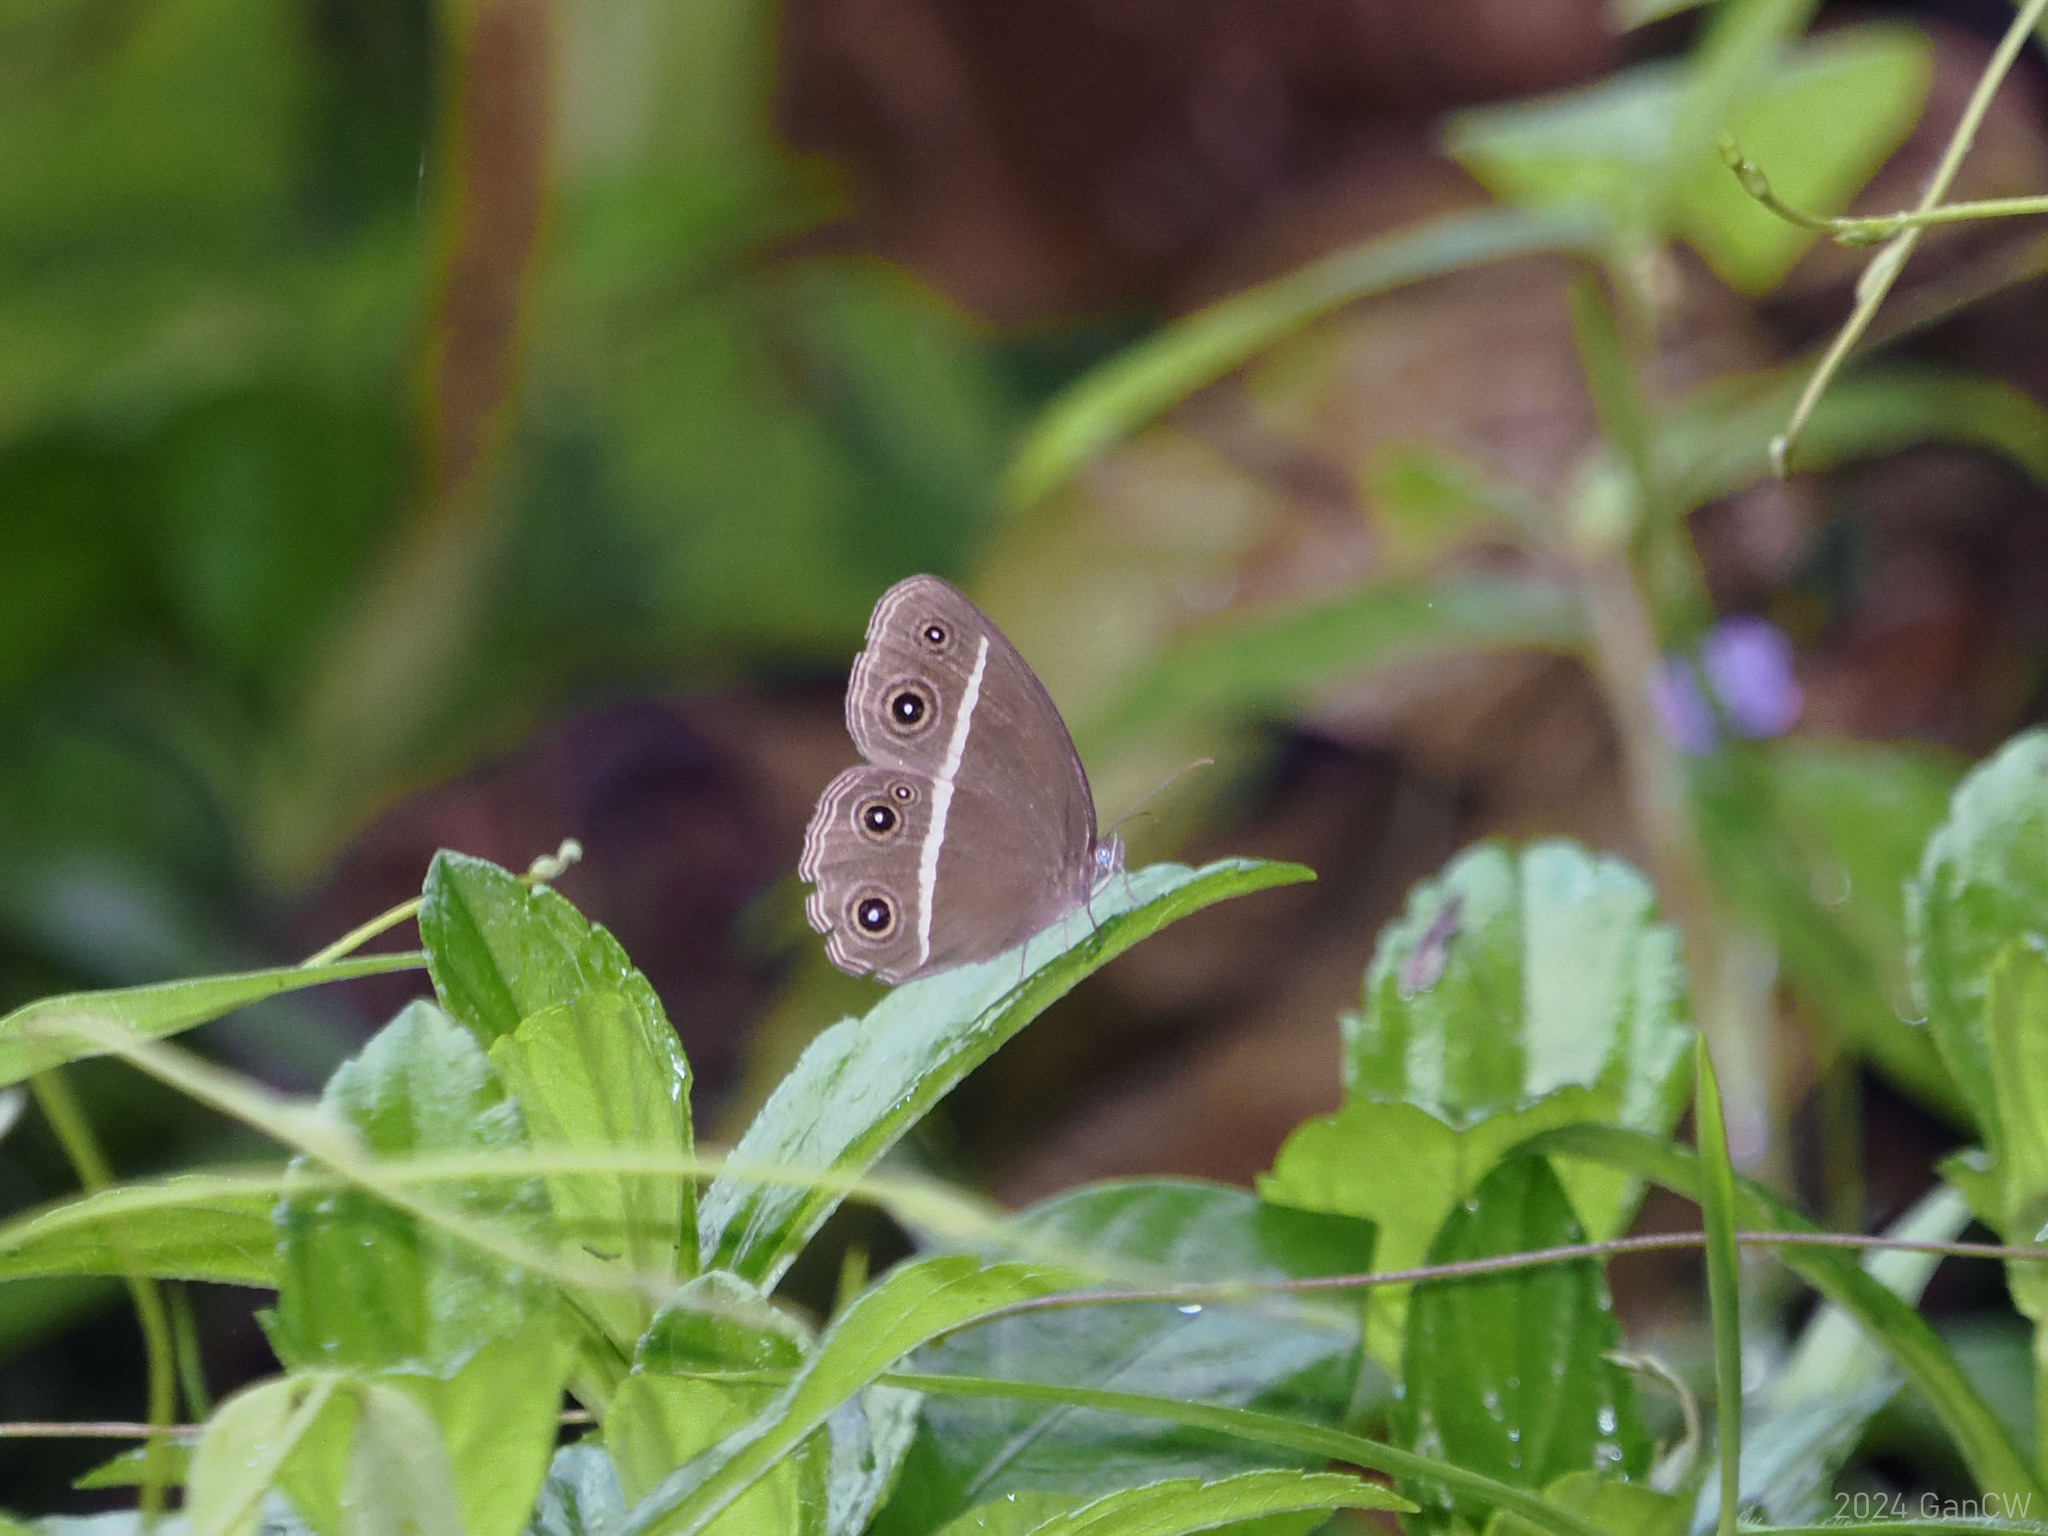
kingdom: Animalia
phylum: Arthropoda
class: Insecta
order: Lepidoptera
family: Nymphalidae
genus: Orsotriaena
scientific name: Orsotriaena medus
